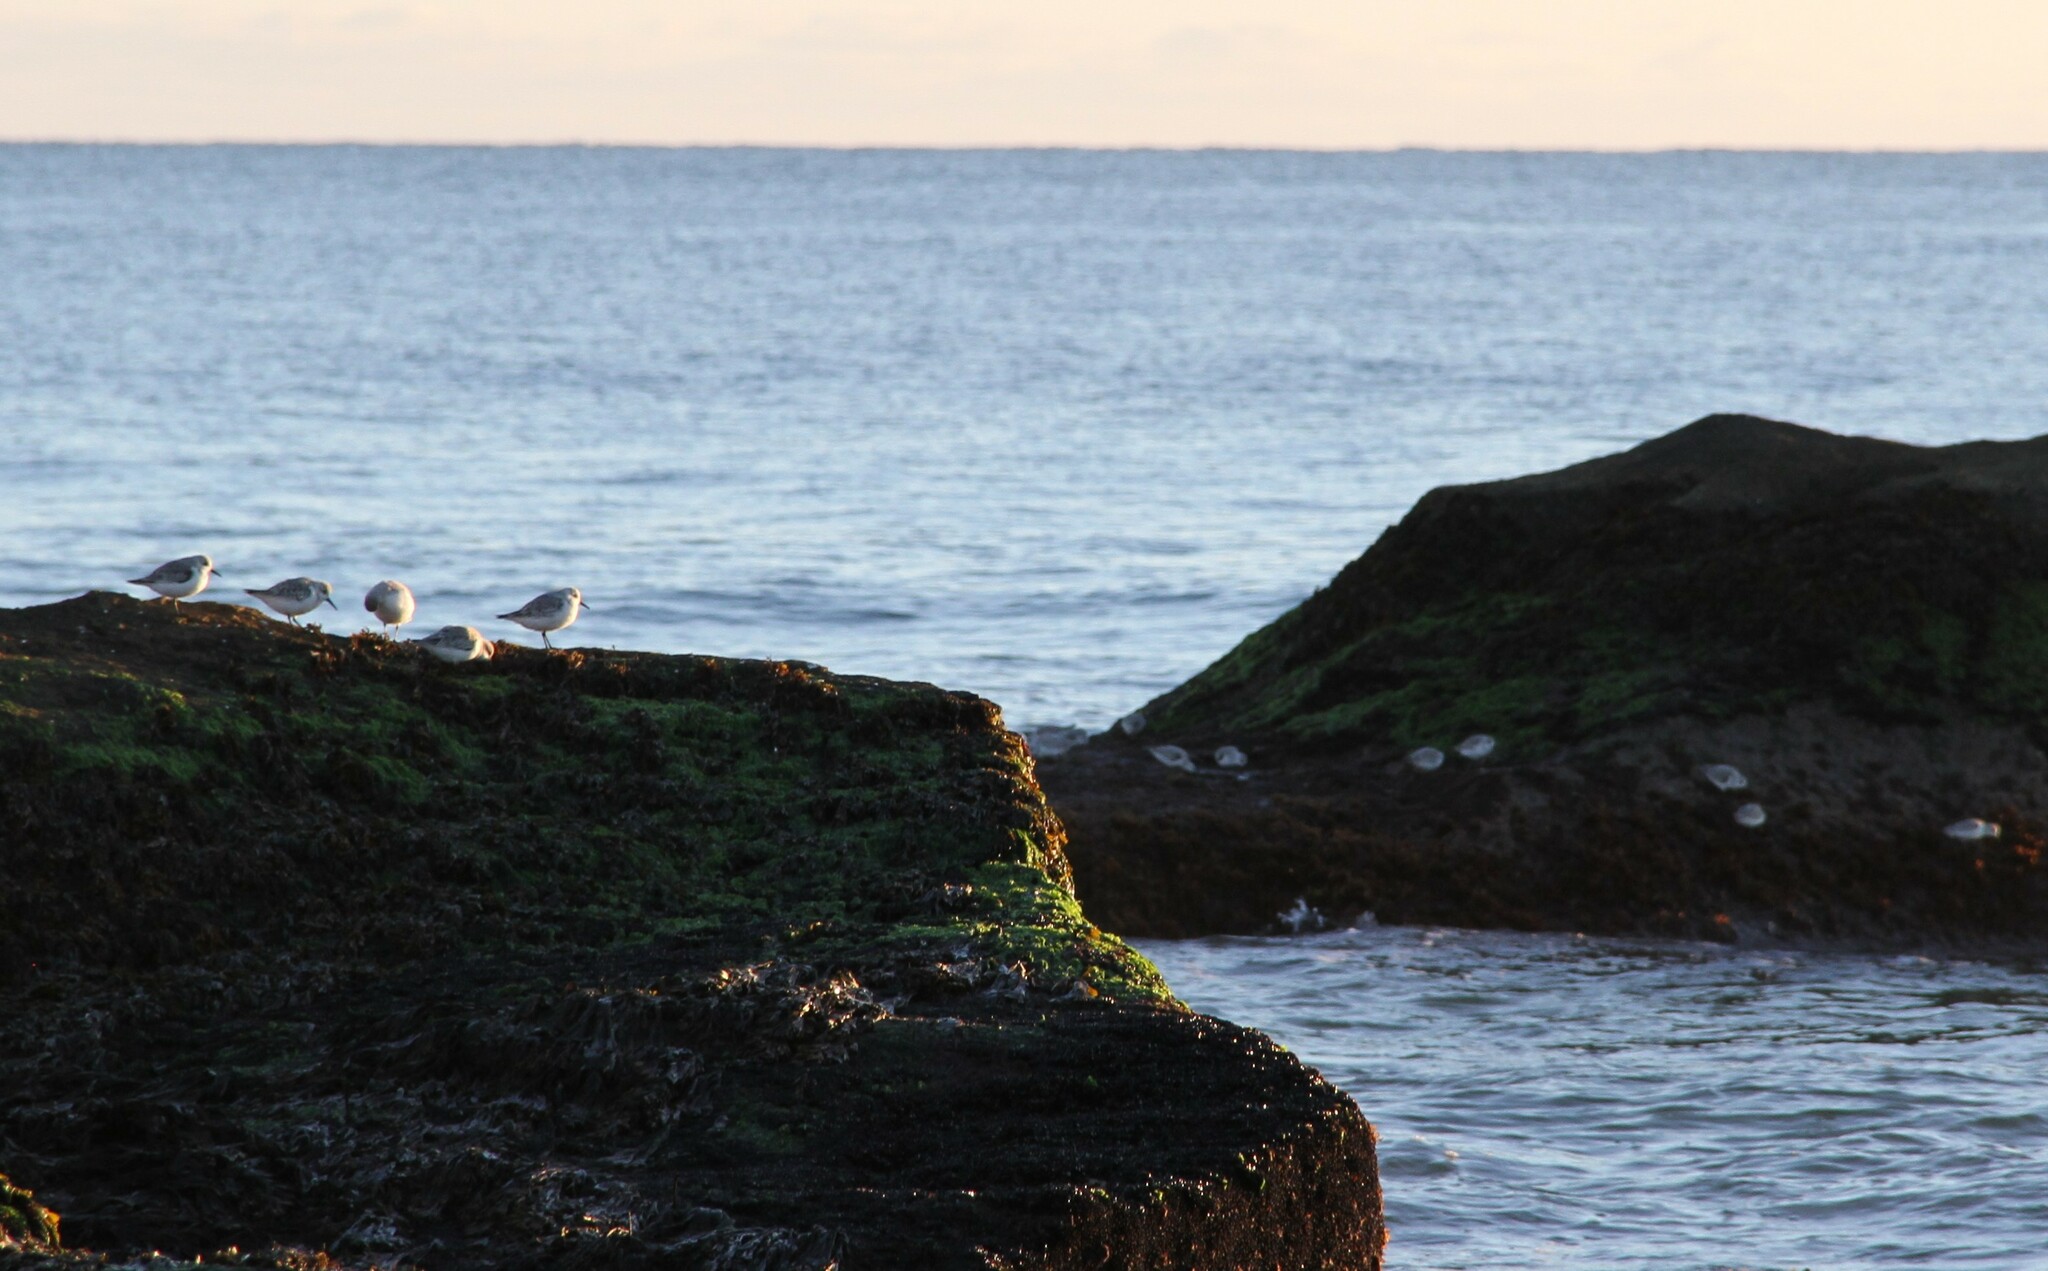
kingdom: Animalia
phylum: Chordata
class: Aves
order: Charadriiformes
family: Scolopacidae
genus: Calidris
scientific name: Calidris alba
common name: Sanderling
